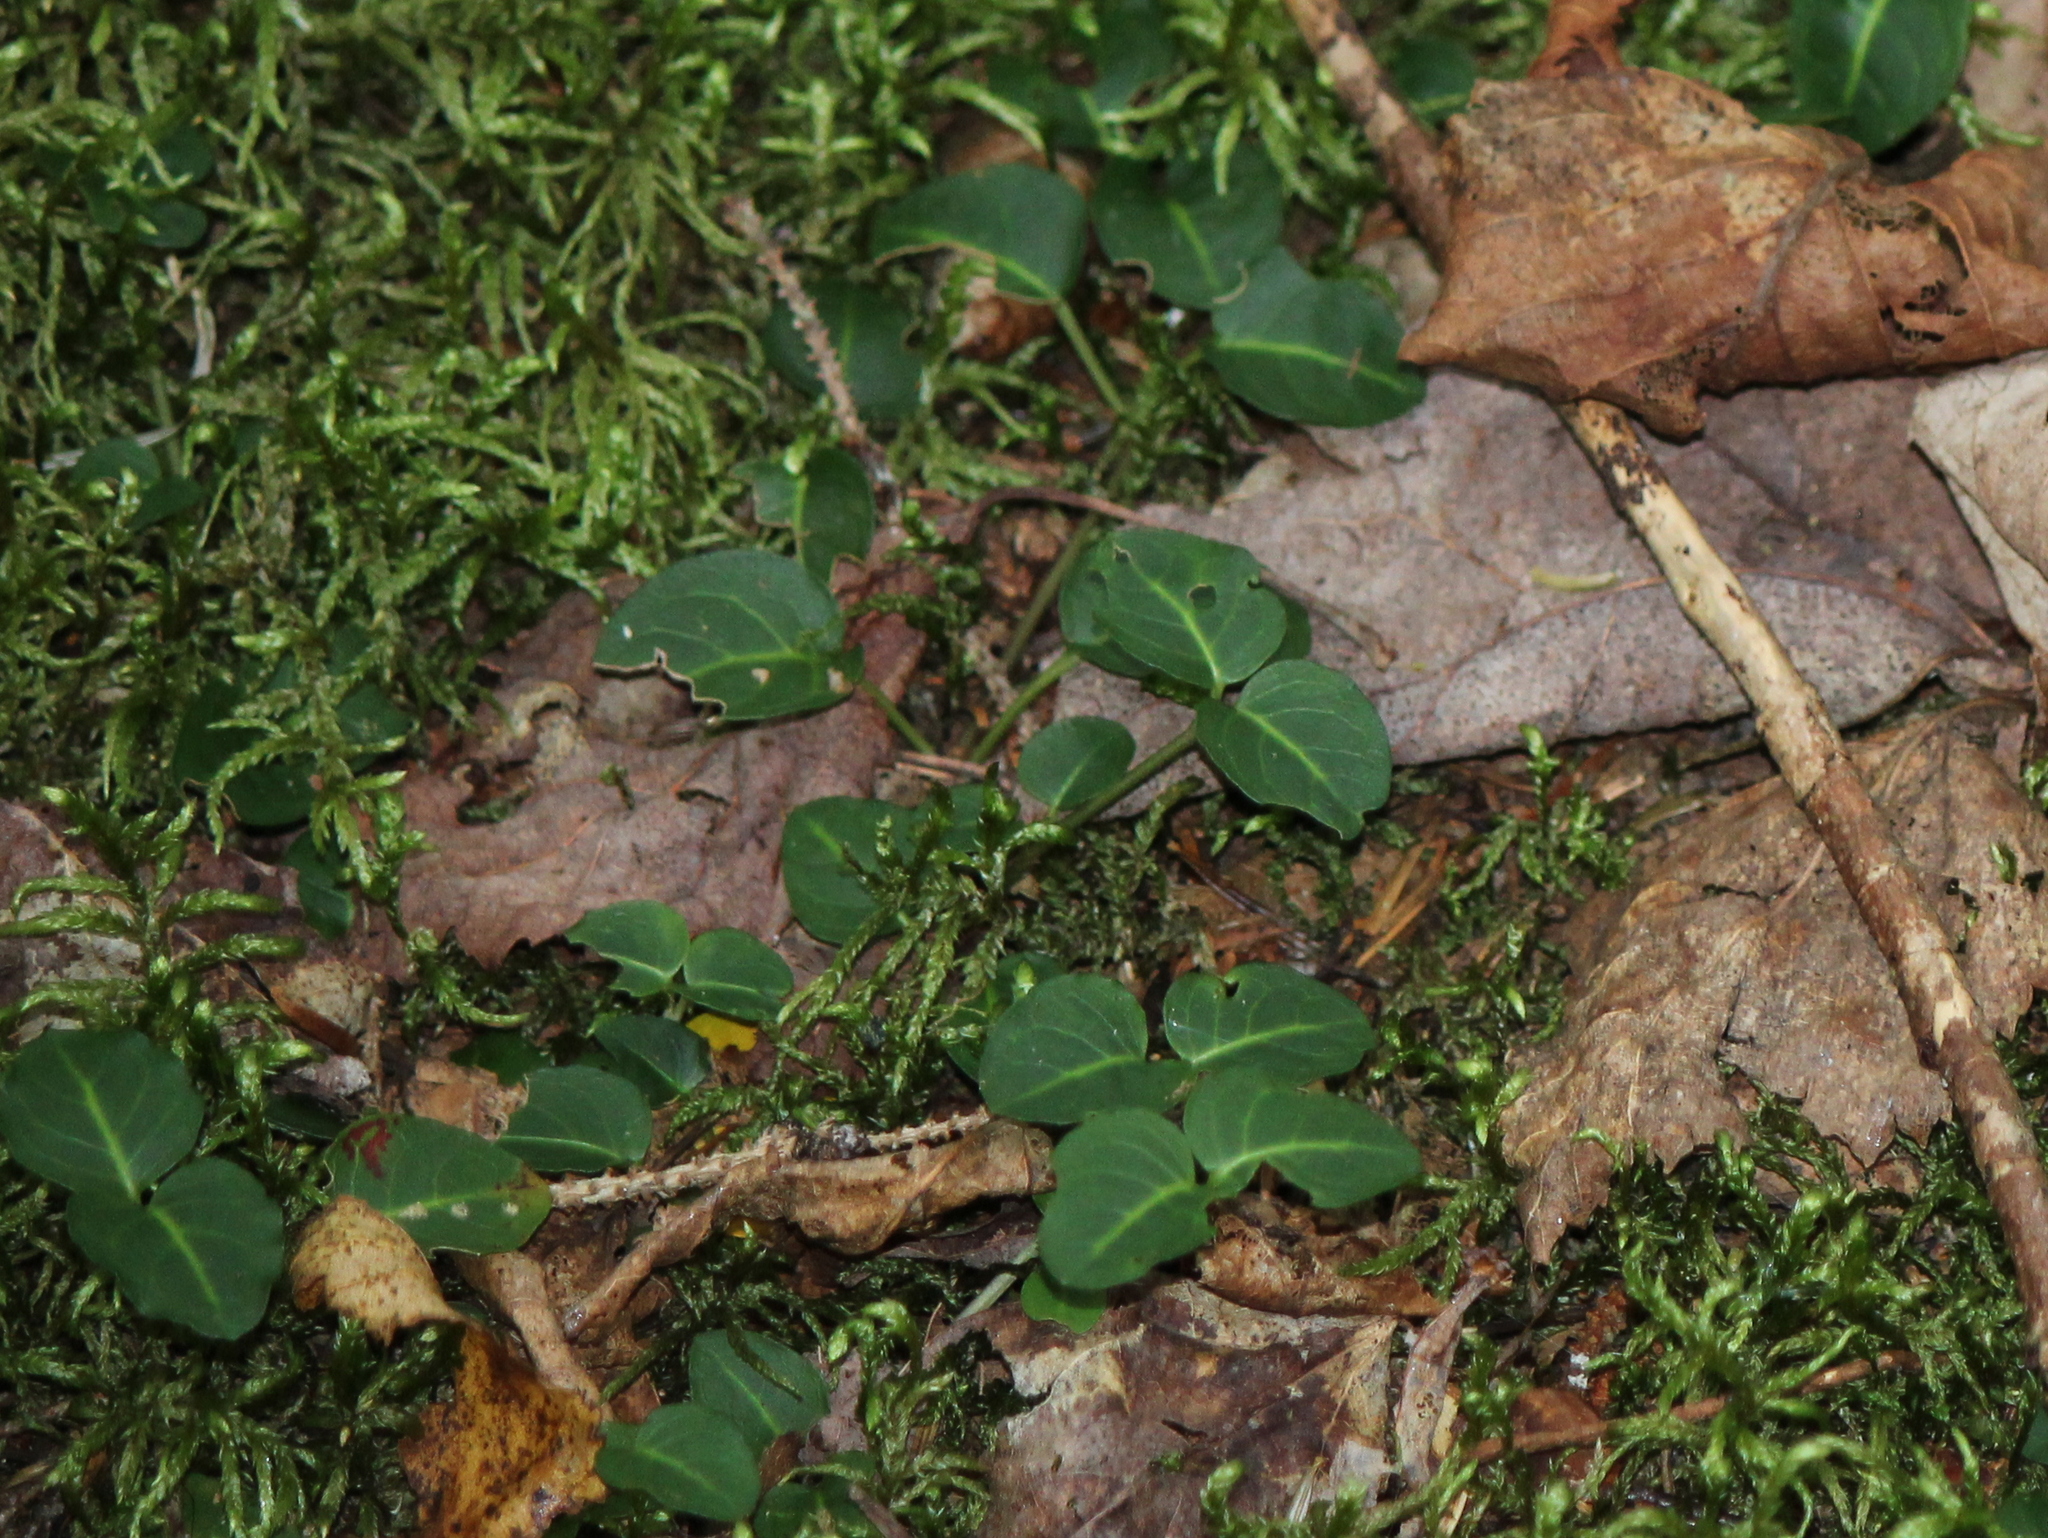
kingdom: Plantae
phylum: Tracheophyta
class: Magnoliopsida
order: Gentianales
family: Rubiaceae
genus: Mitchella
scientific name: Mitchella repens
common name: Partridge-berry
